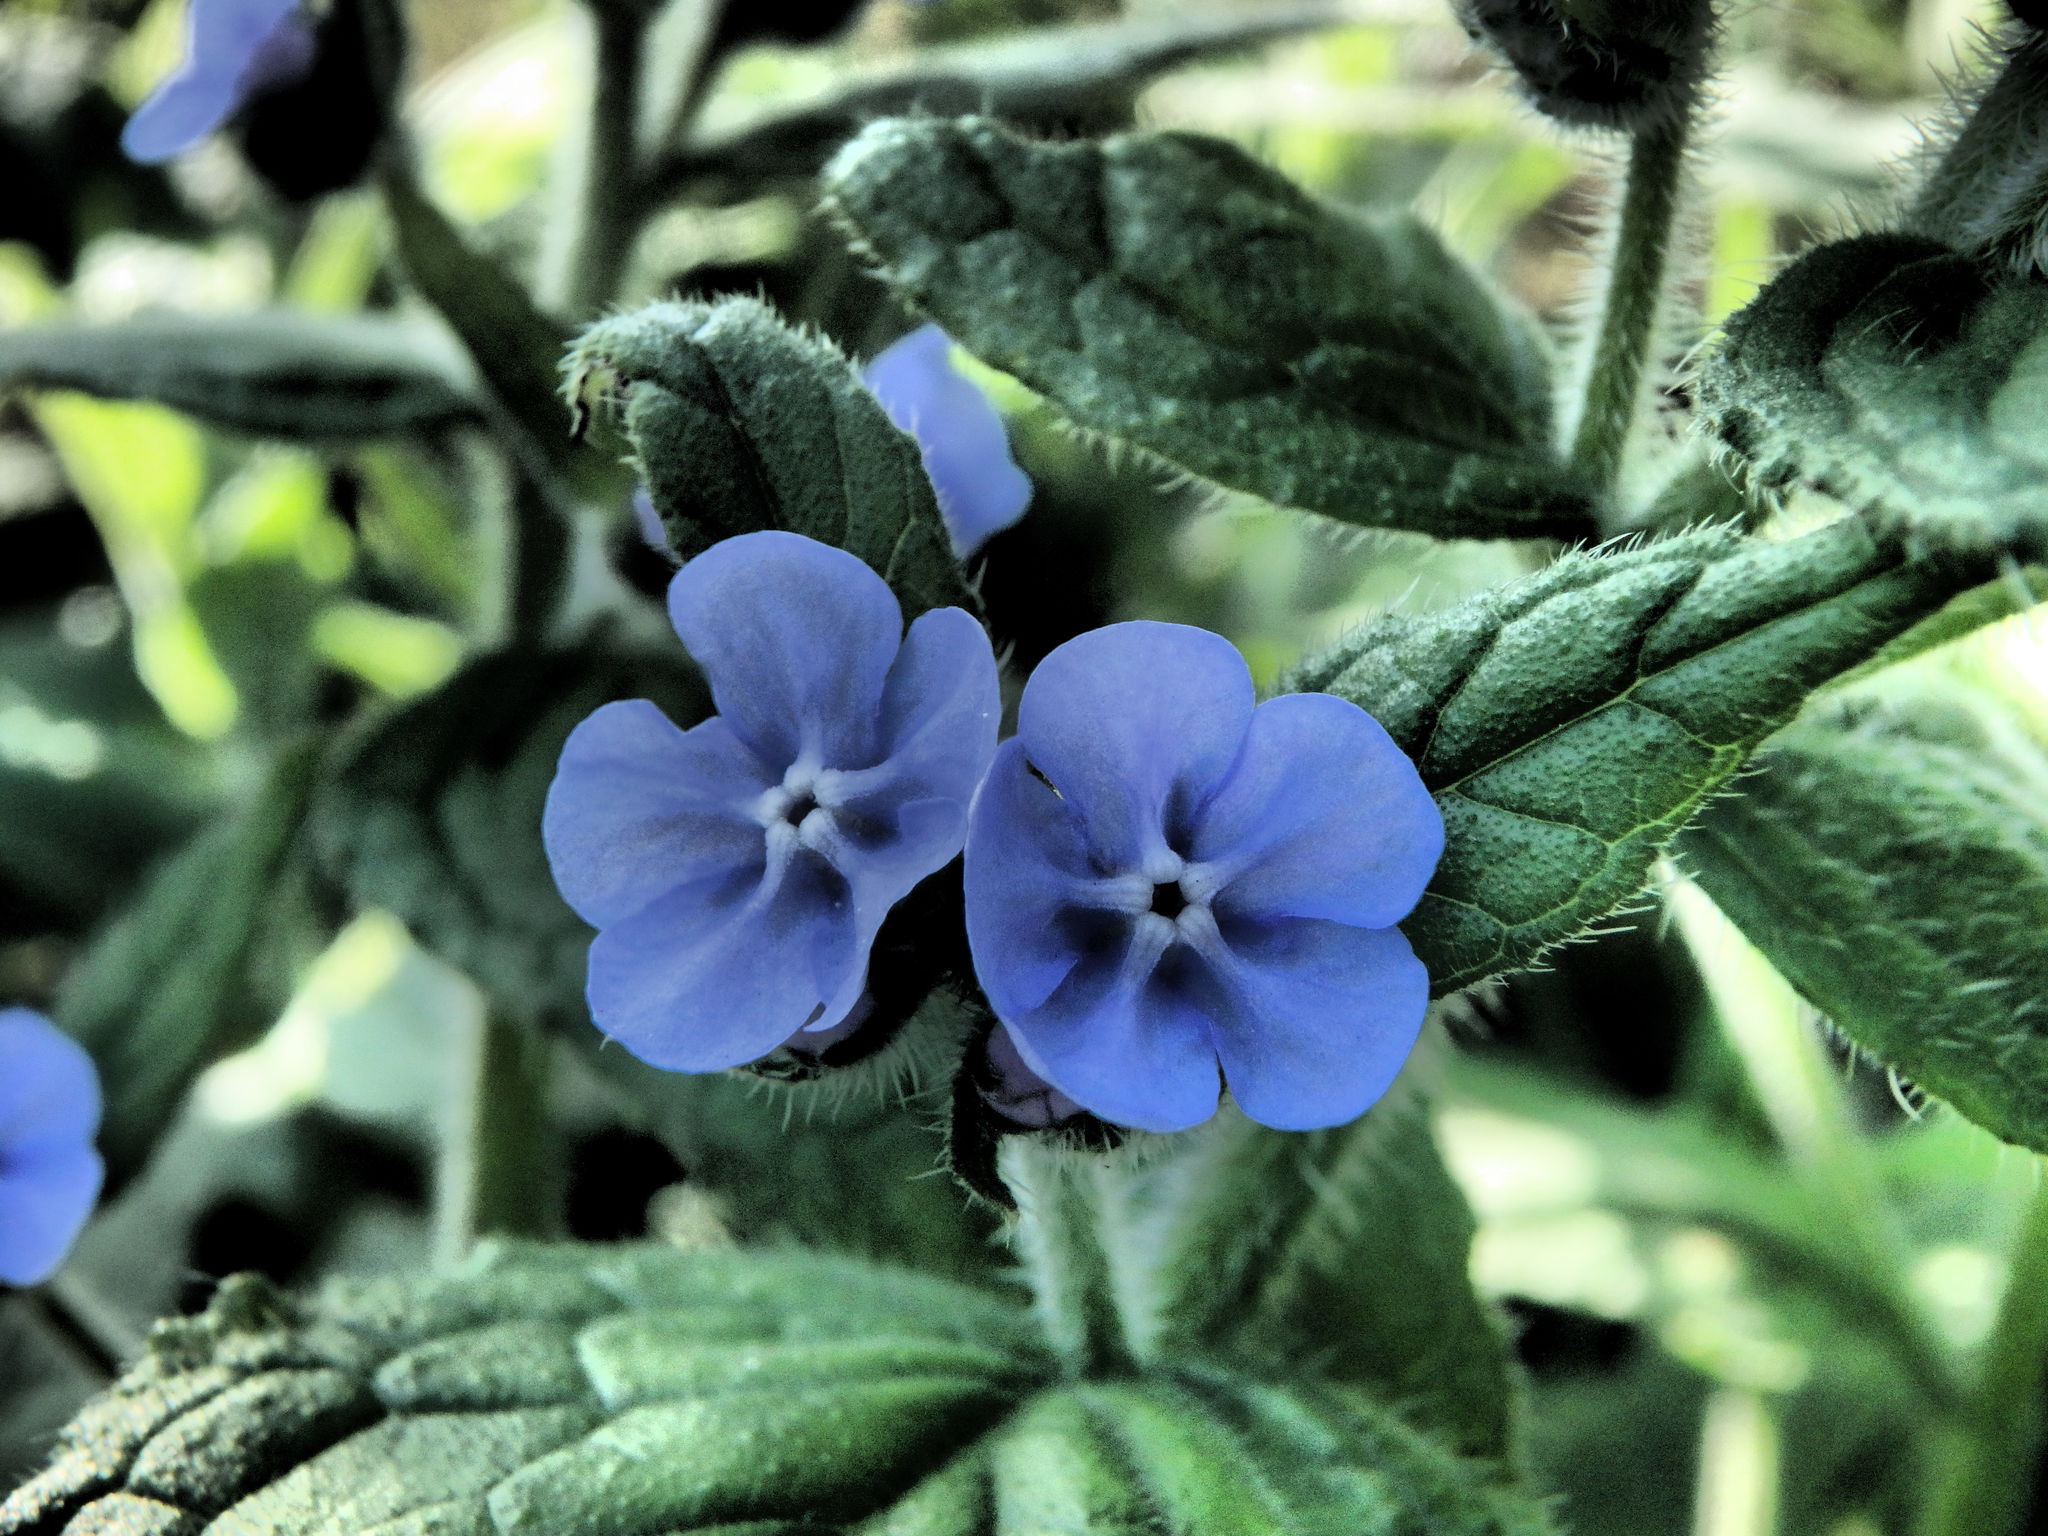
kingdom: Plantae
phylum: Tracheophyta
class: Magnoliopsida
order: Boraginales
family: Boraginaceae
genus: Pentaglottis
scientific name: Pentaglottis sempervirens
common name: Green alkanet
